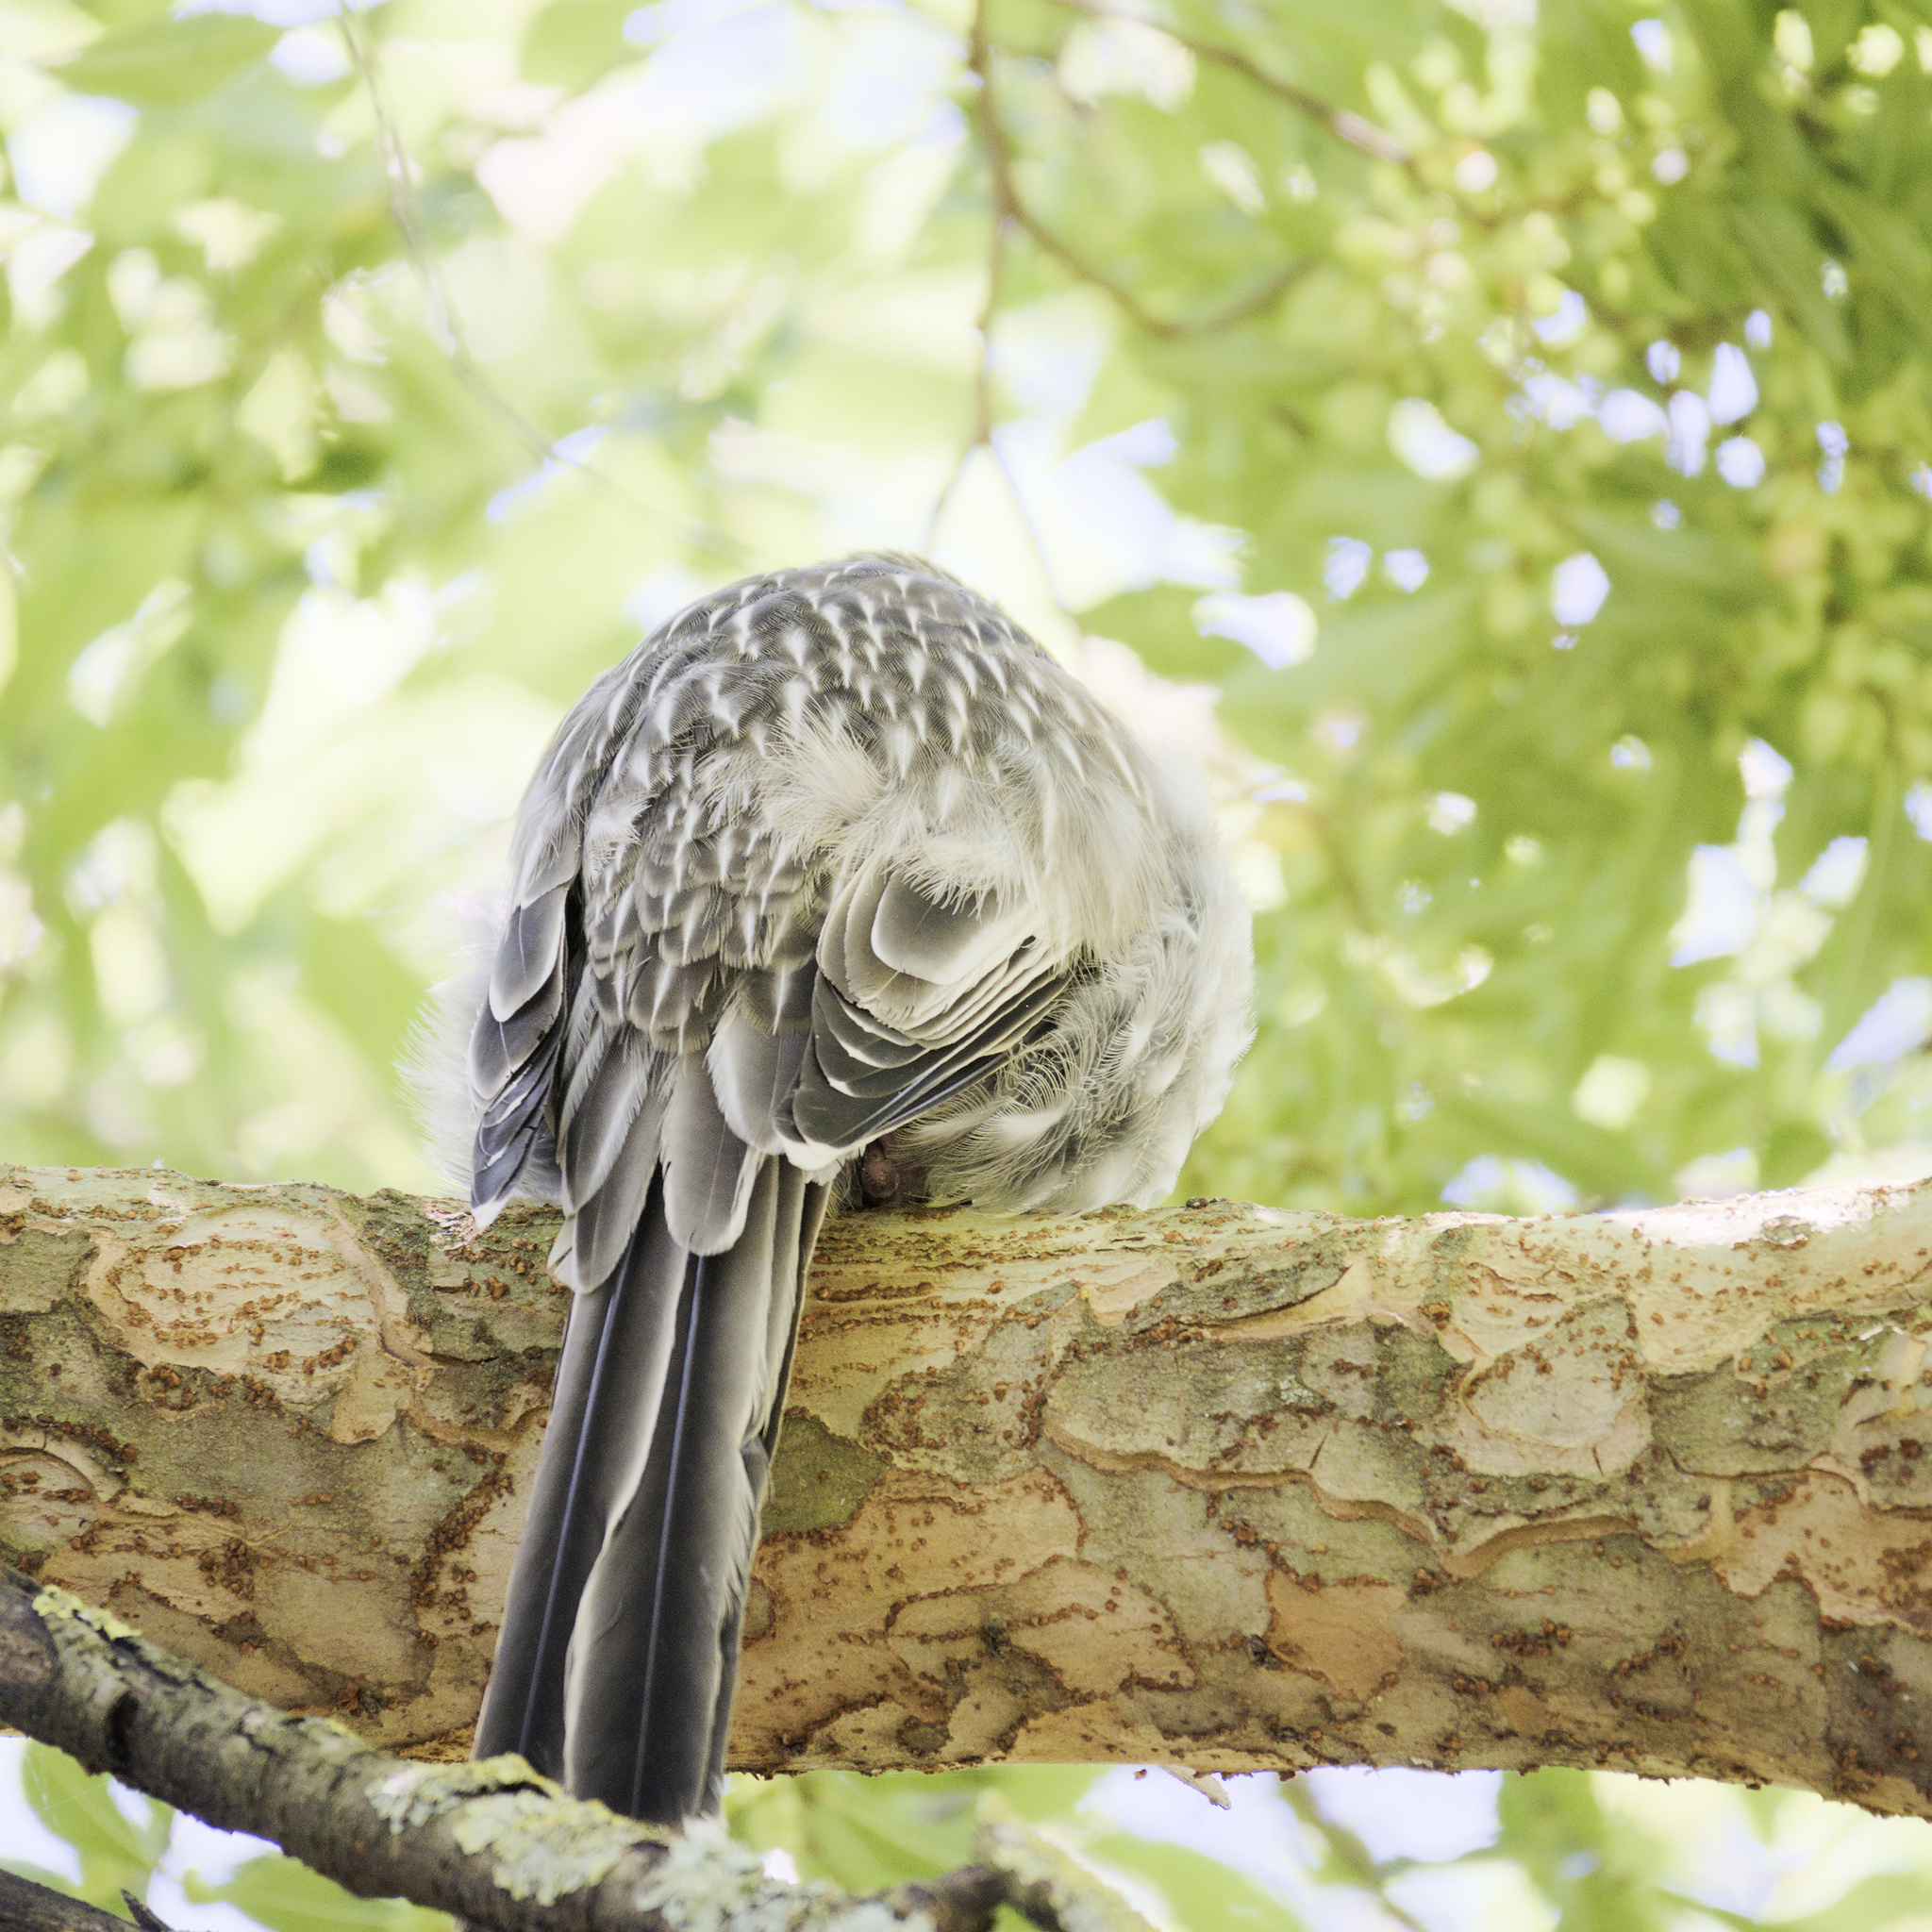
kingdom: Animalia
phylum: Chordata
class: Aves
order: Passeriformes
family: Meliphagidae
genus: Anthochaera
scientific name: Anthochaera carunculata
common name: Red wattlebird
